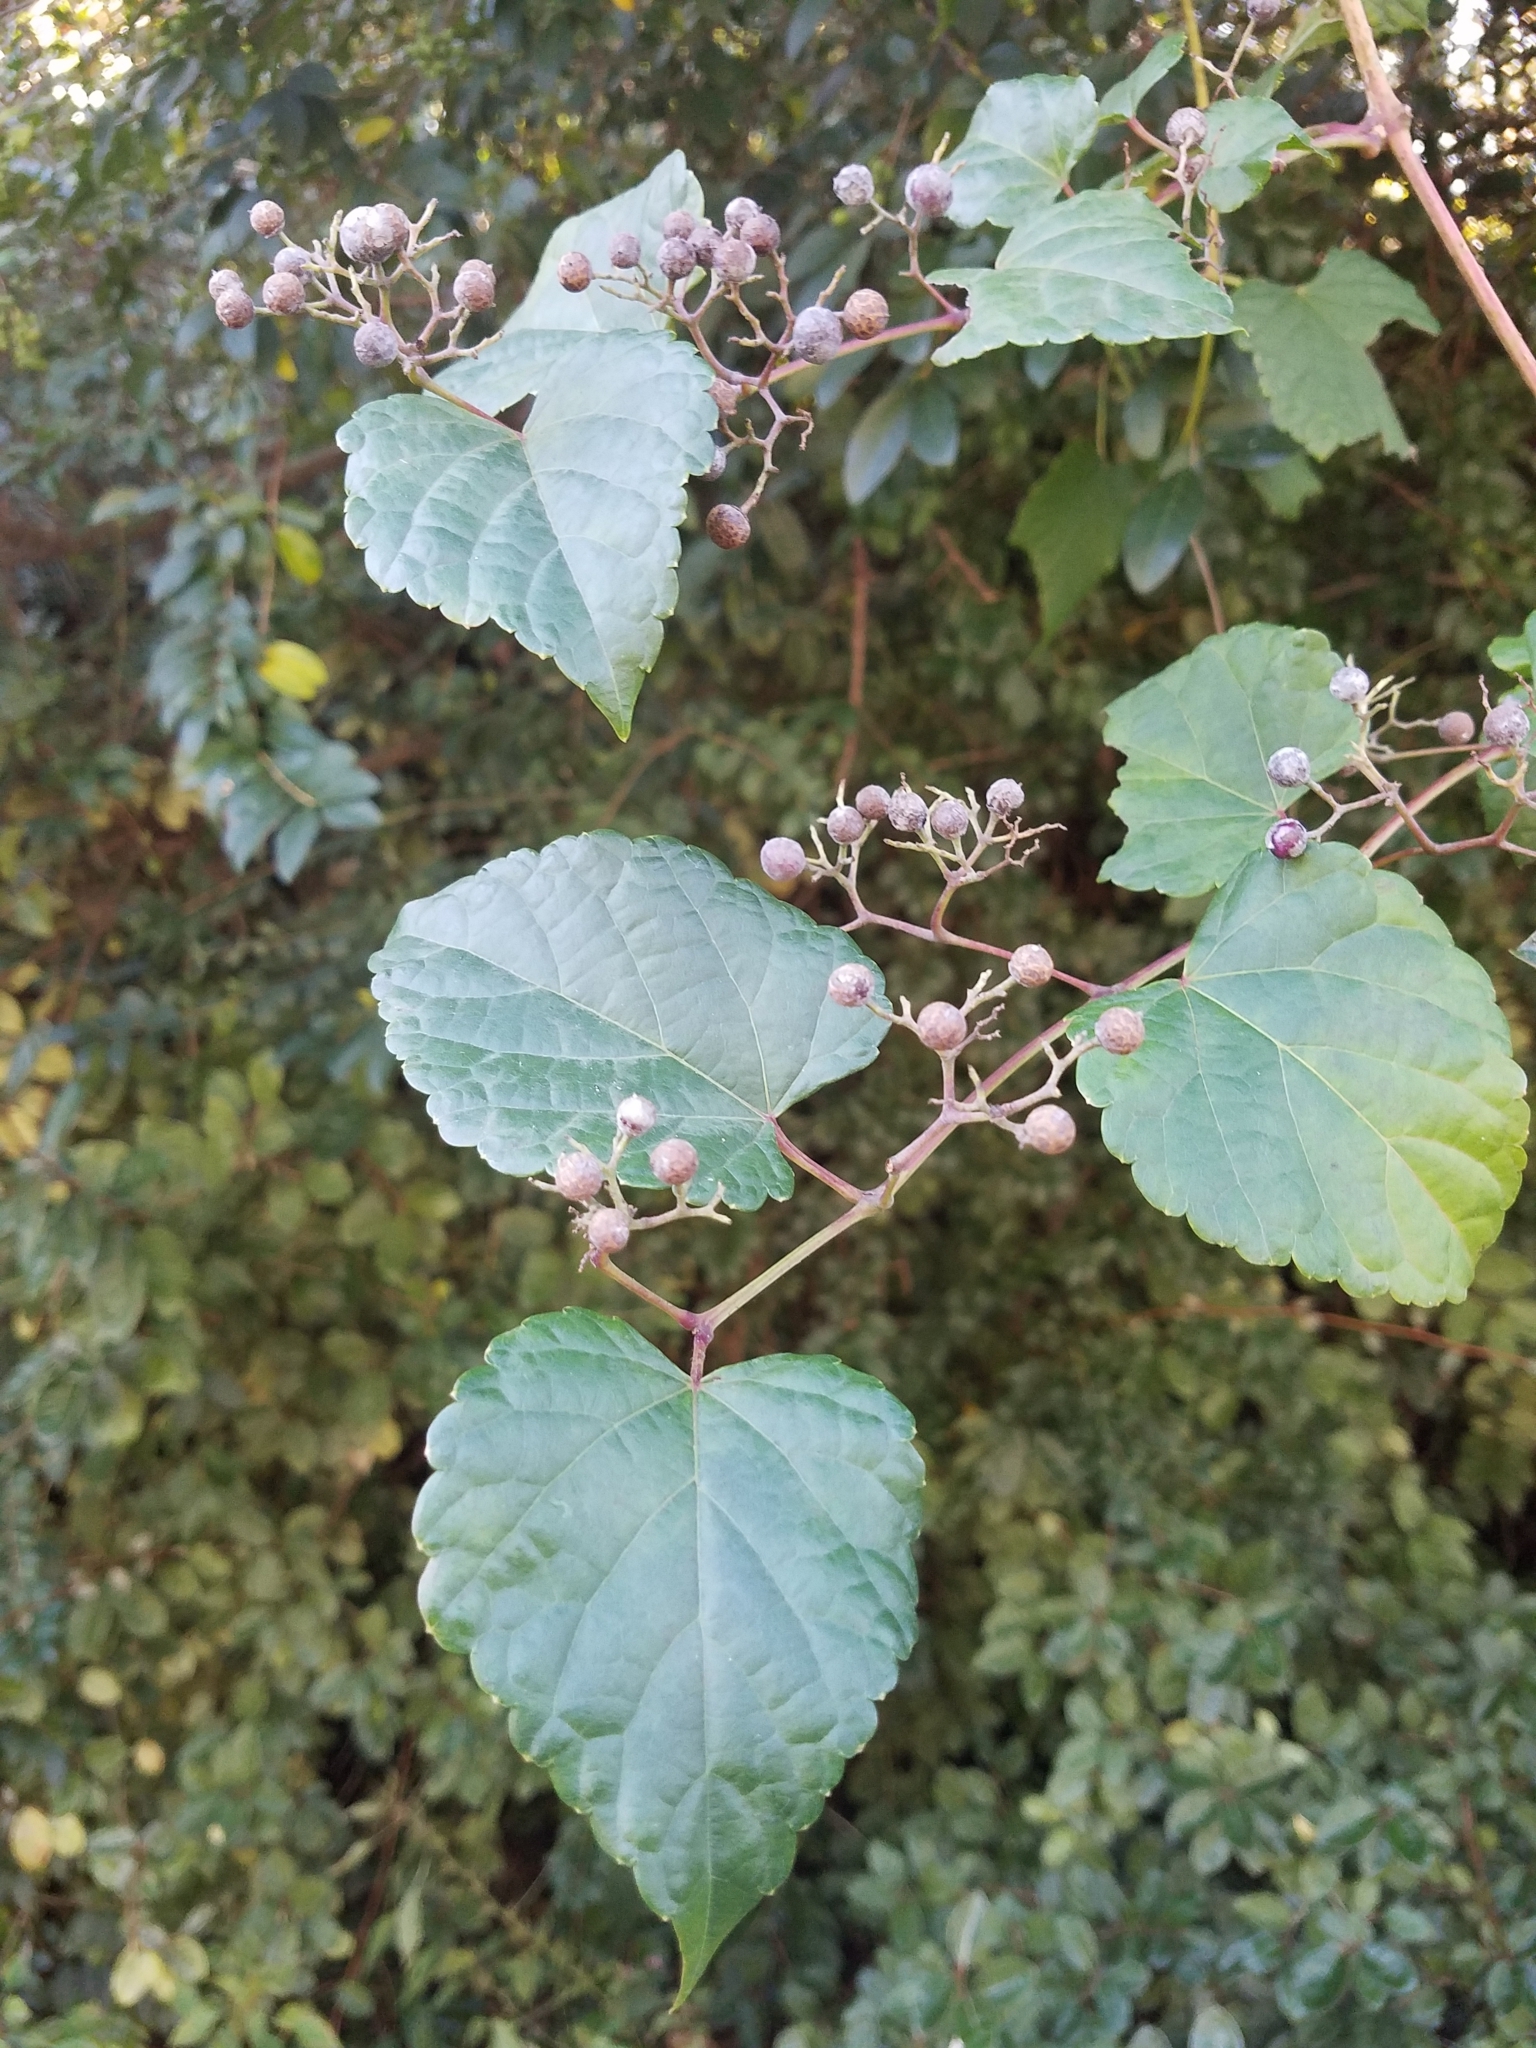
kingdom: Plantae
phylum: Tracheophyta
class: Magnoliopsida
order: Vitales
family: Vitaceae
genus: Ampelopsis
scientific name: Ampelopsis glandulosa
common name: Amur peppervine
